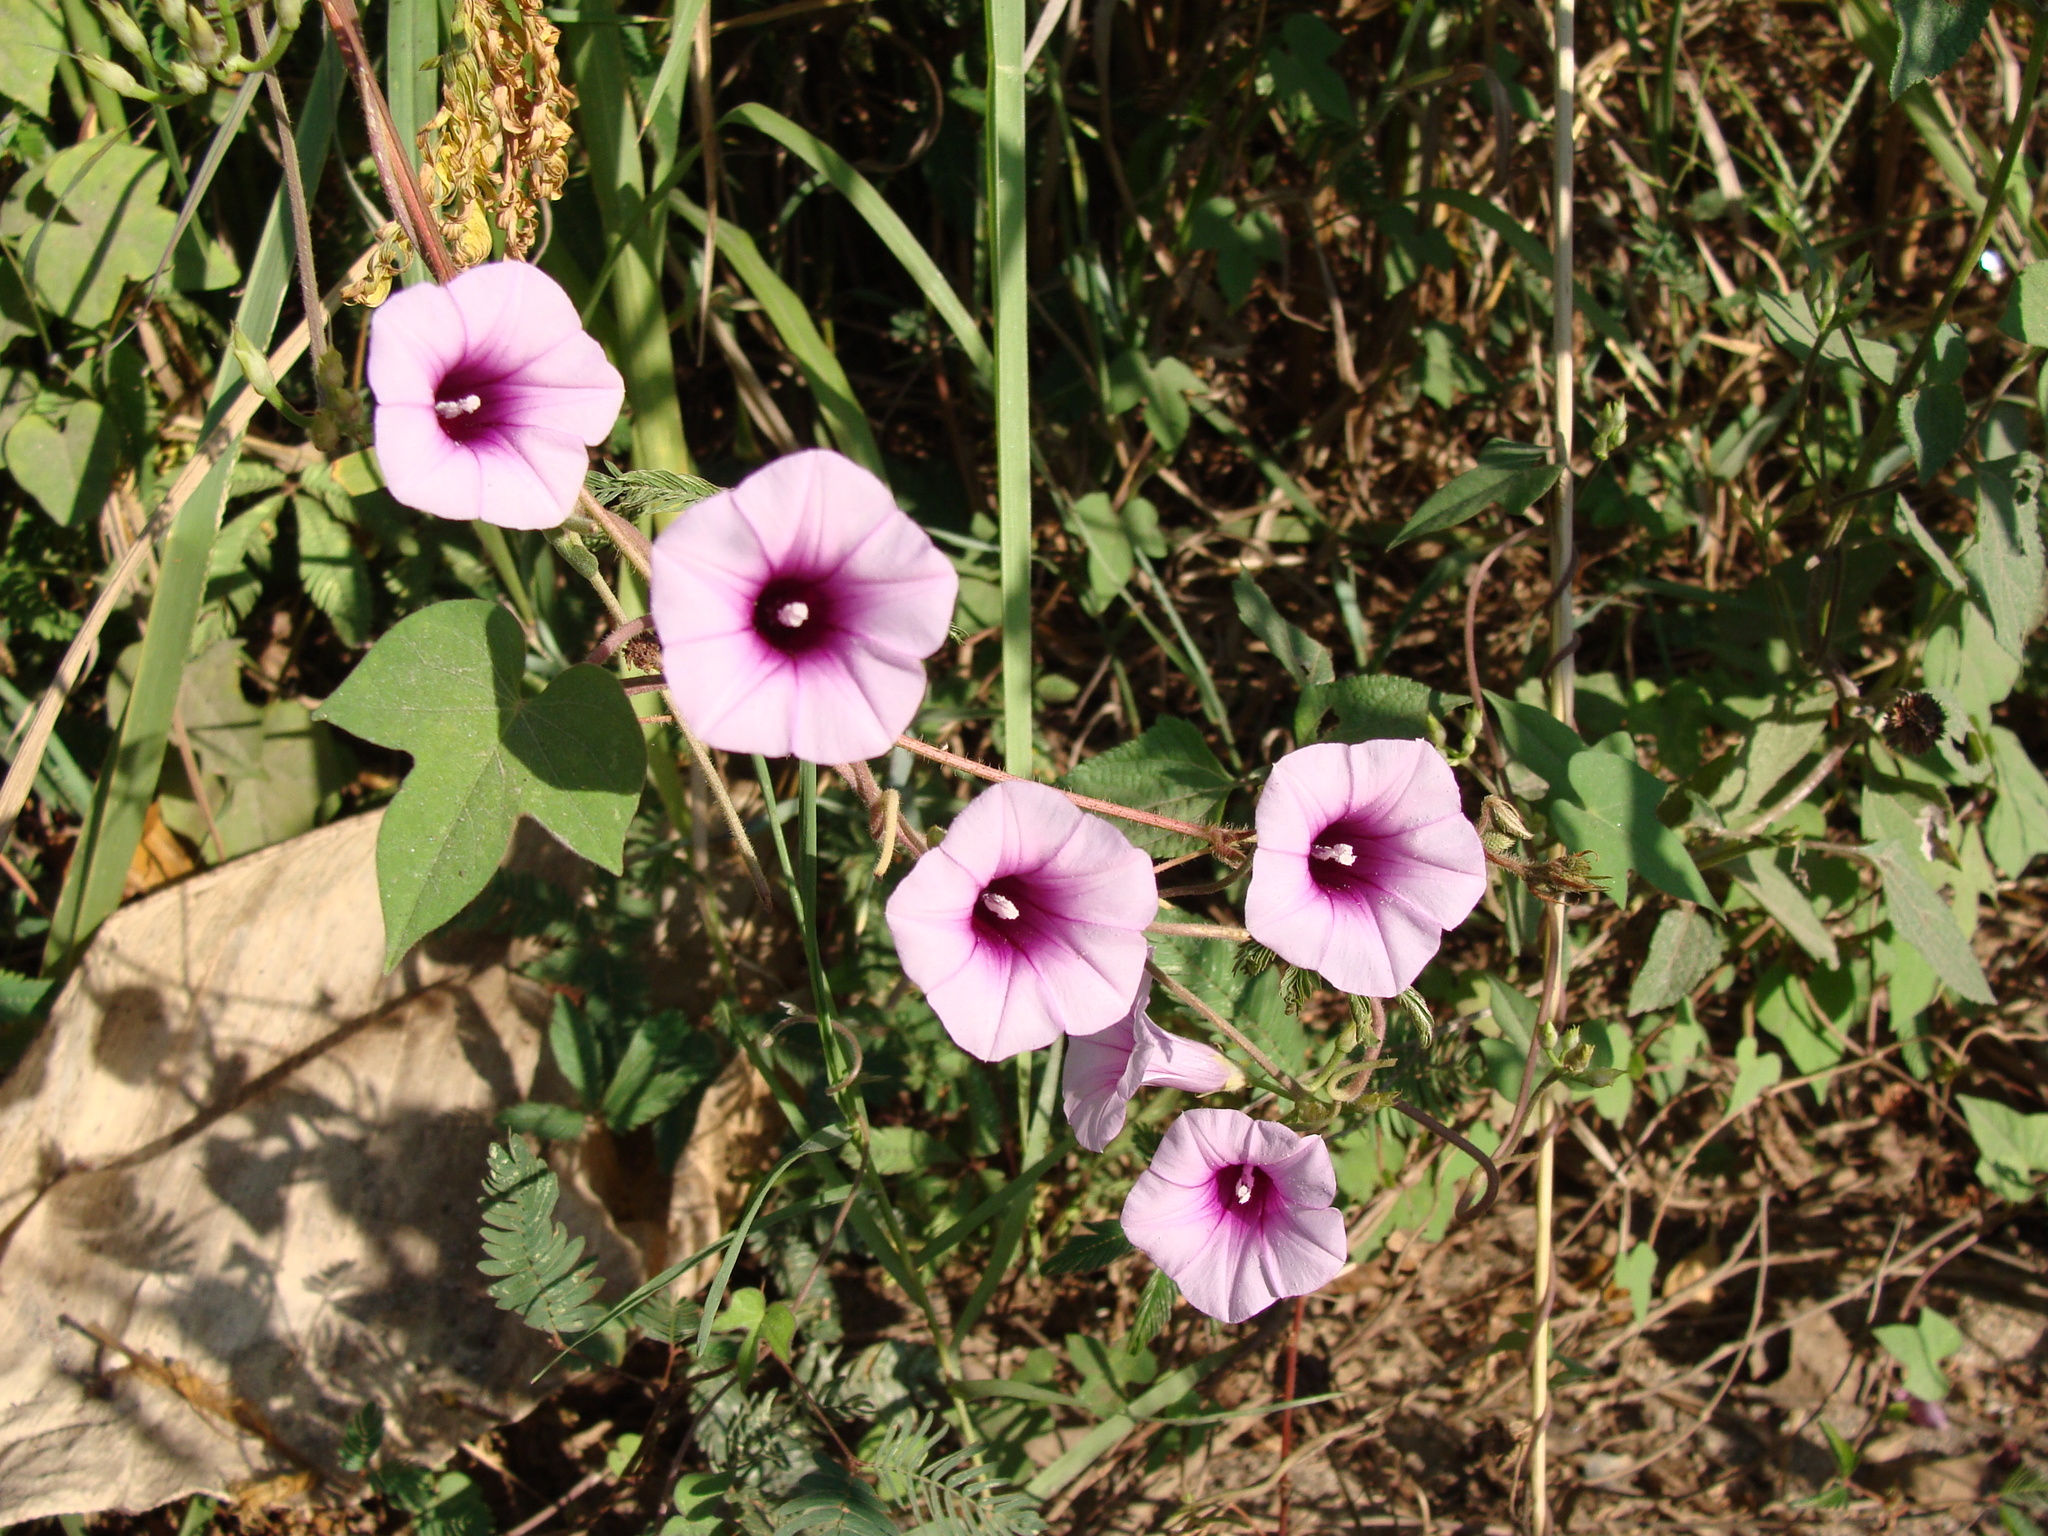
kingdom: Plantae
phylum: Tracheophyta
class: Magnoliopsida
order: Solanales
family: Convolvulaceae
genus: Ipomoea
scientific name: Ipomoea trifida
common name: Cotton morningglory
